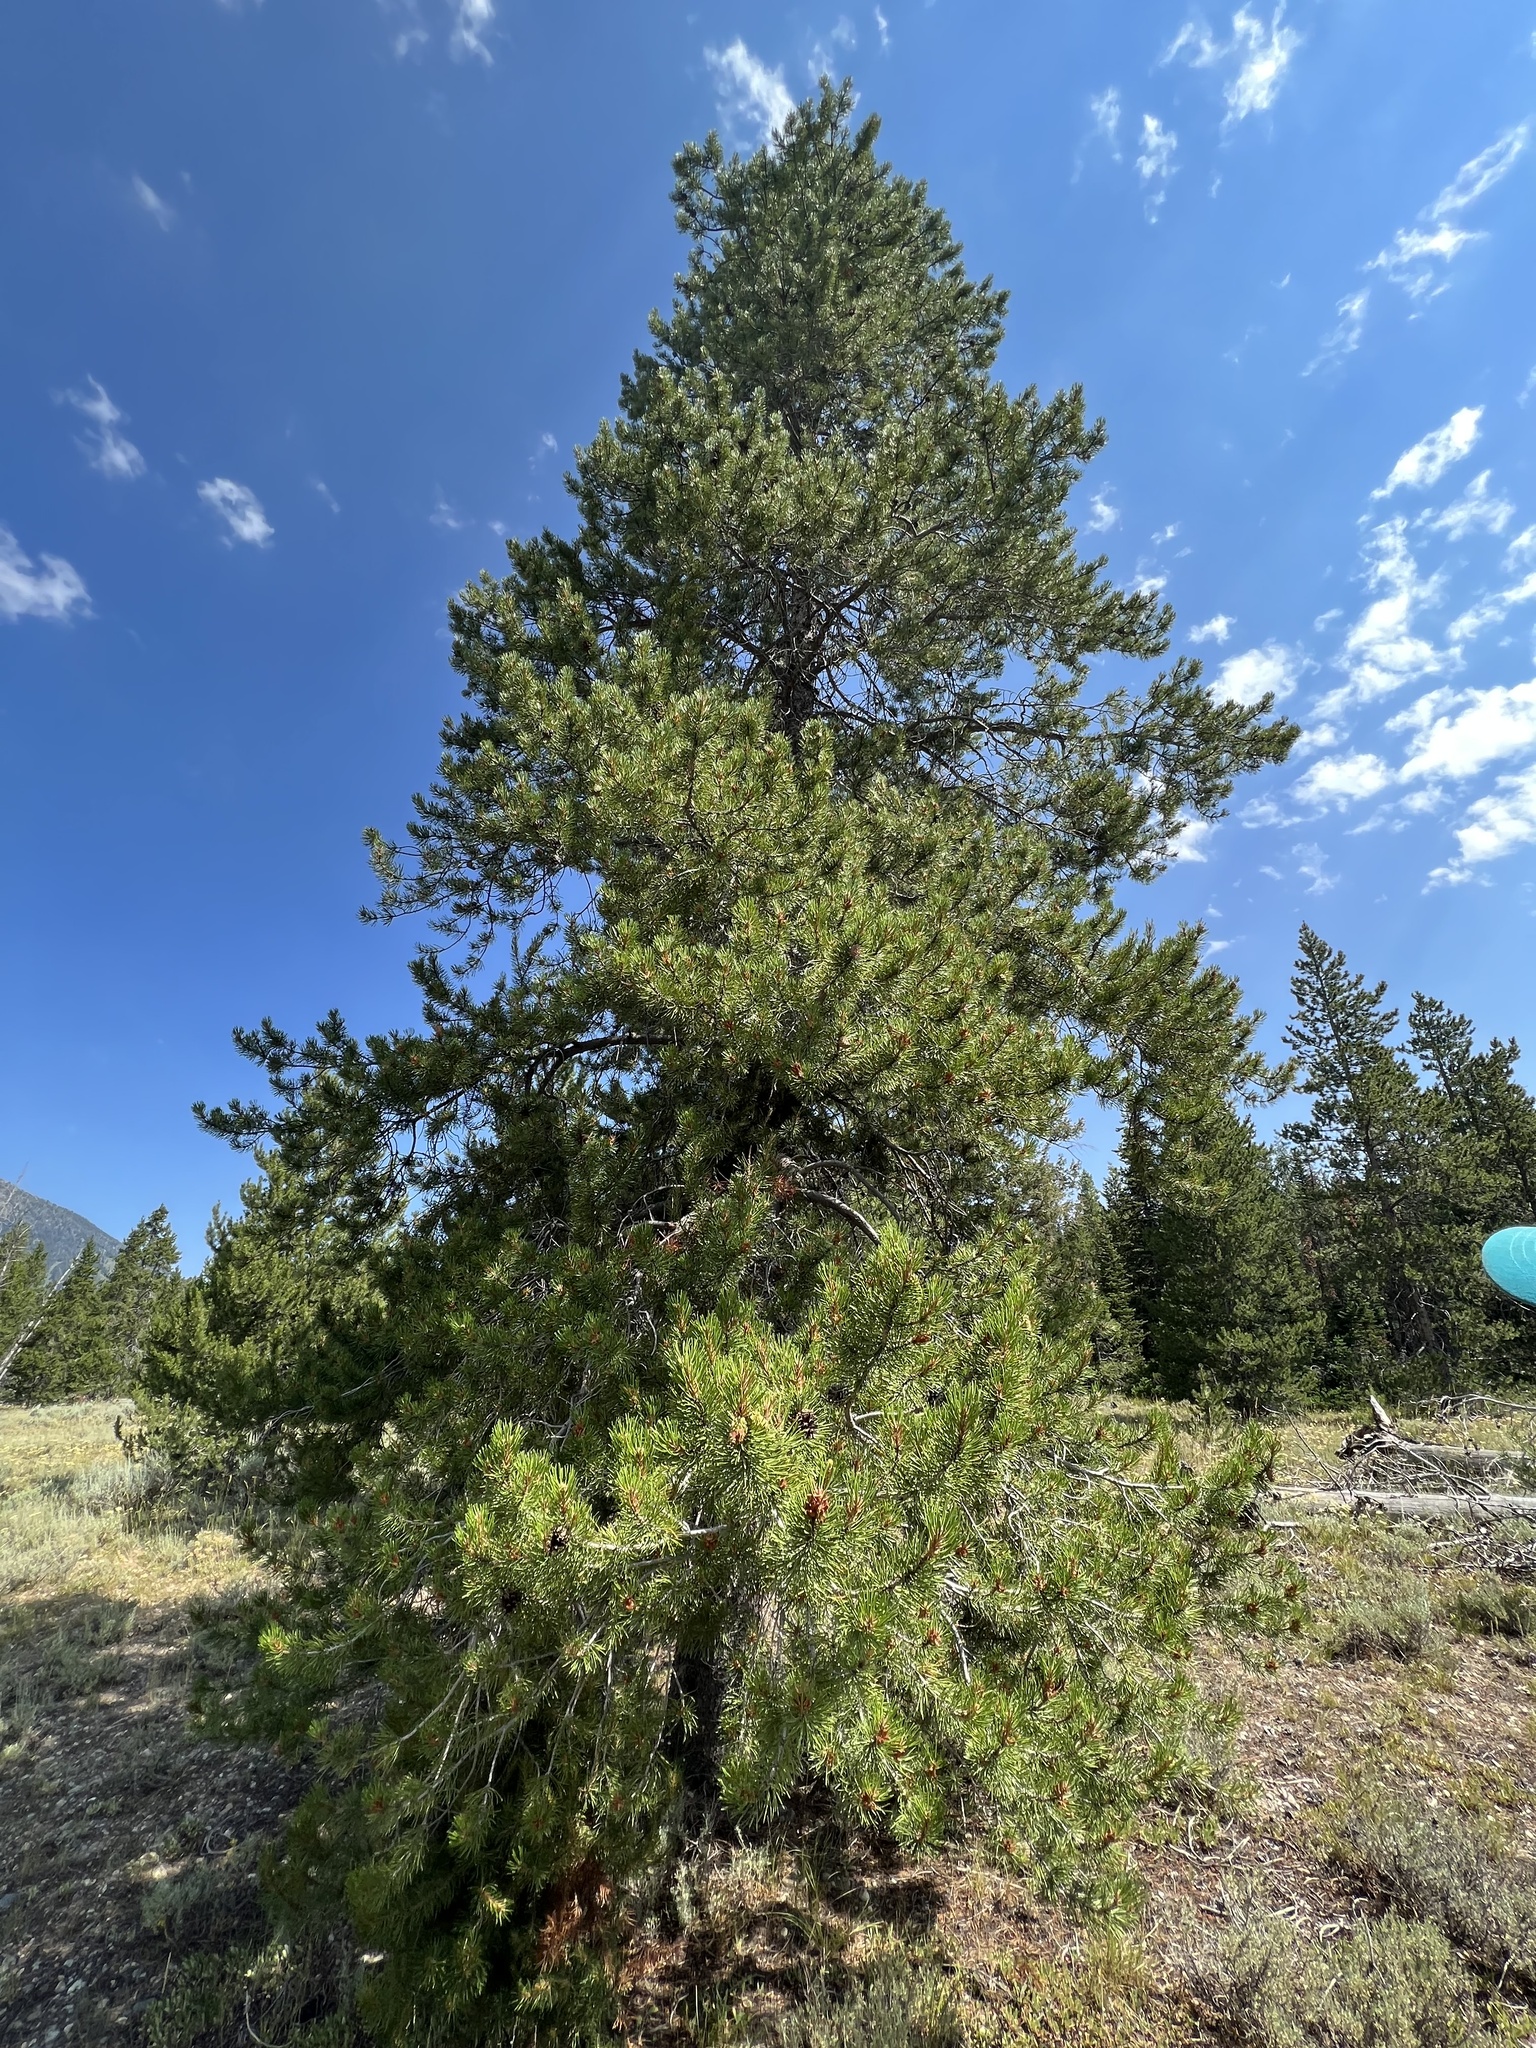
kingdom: Plantae
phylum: Tracheophyta
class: Pinopsida
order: Pinales
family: Pinaceae
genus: Pinus
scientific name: Pinus contorta
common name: Lodgepole pine
